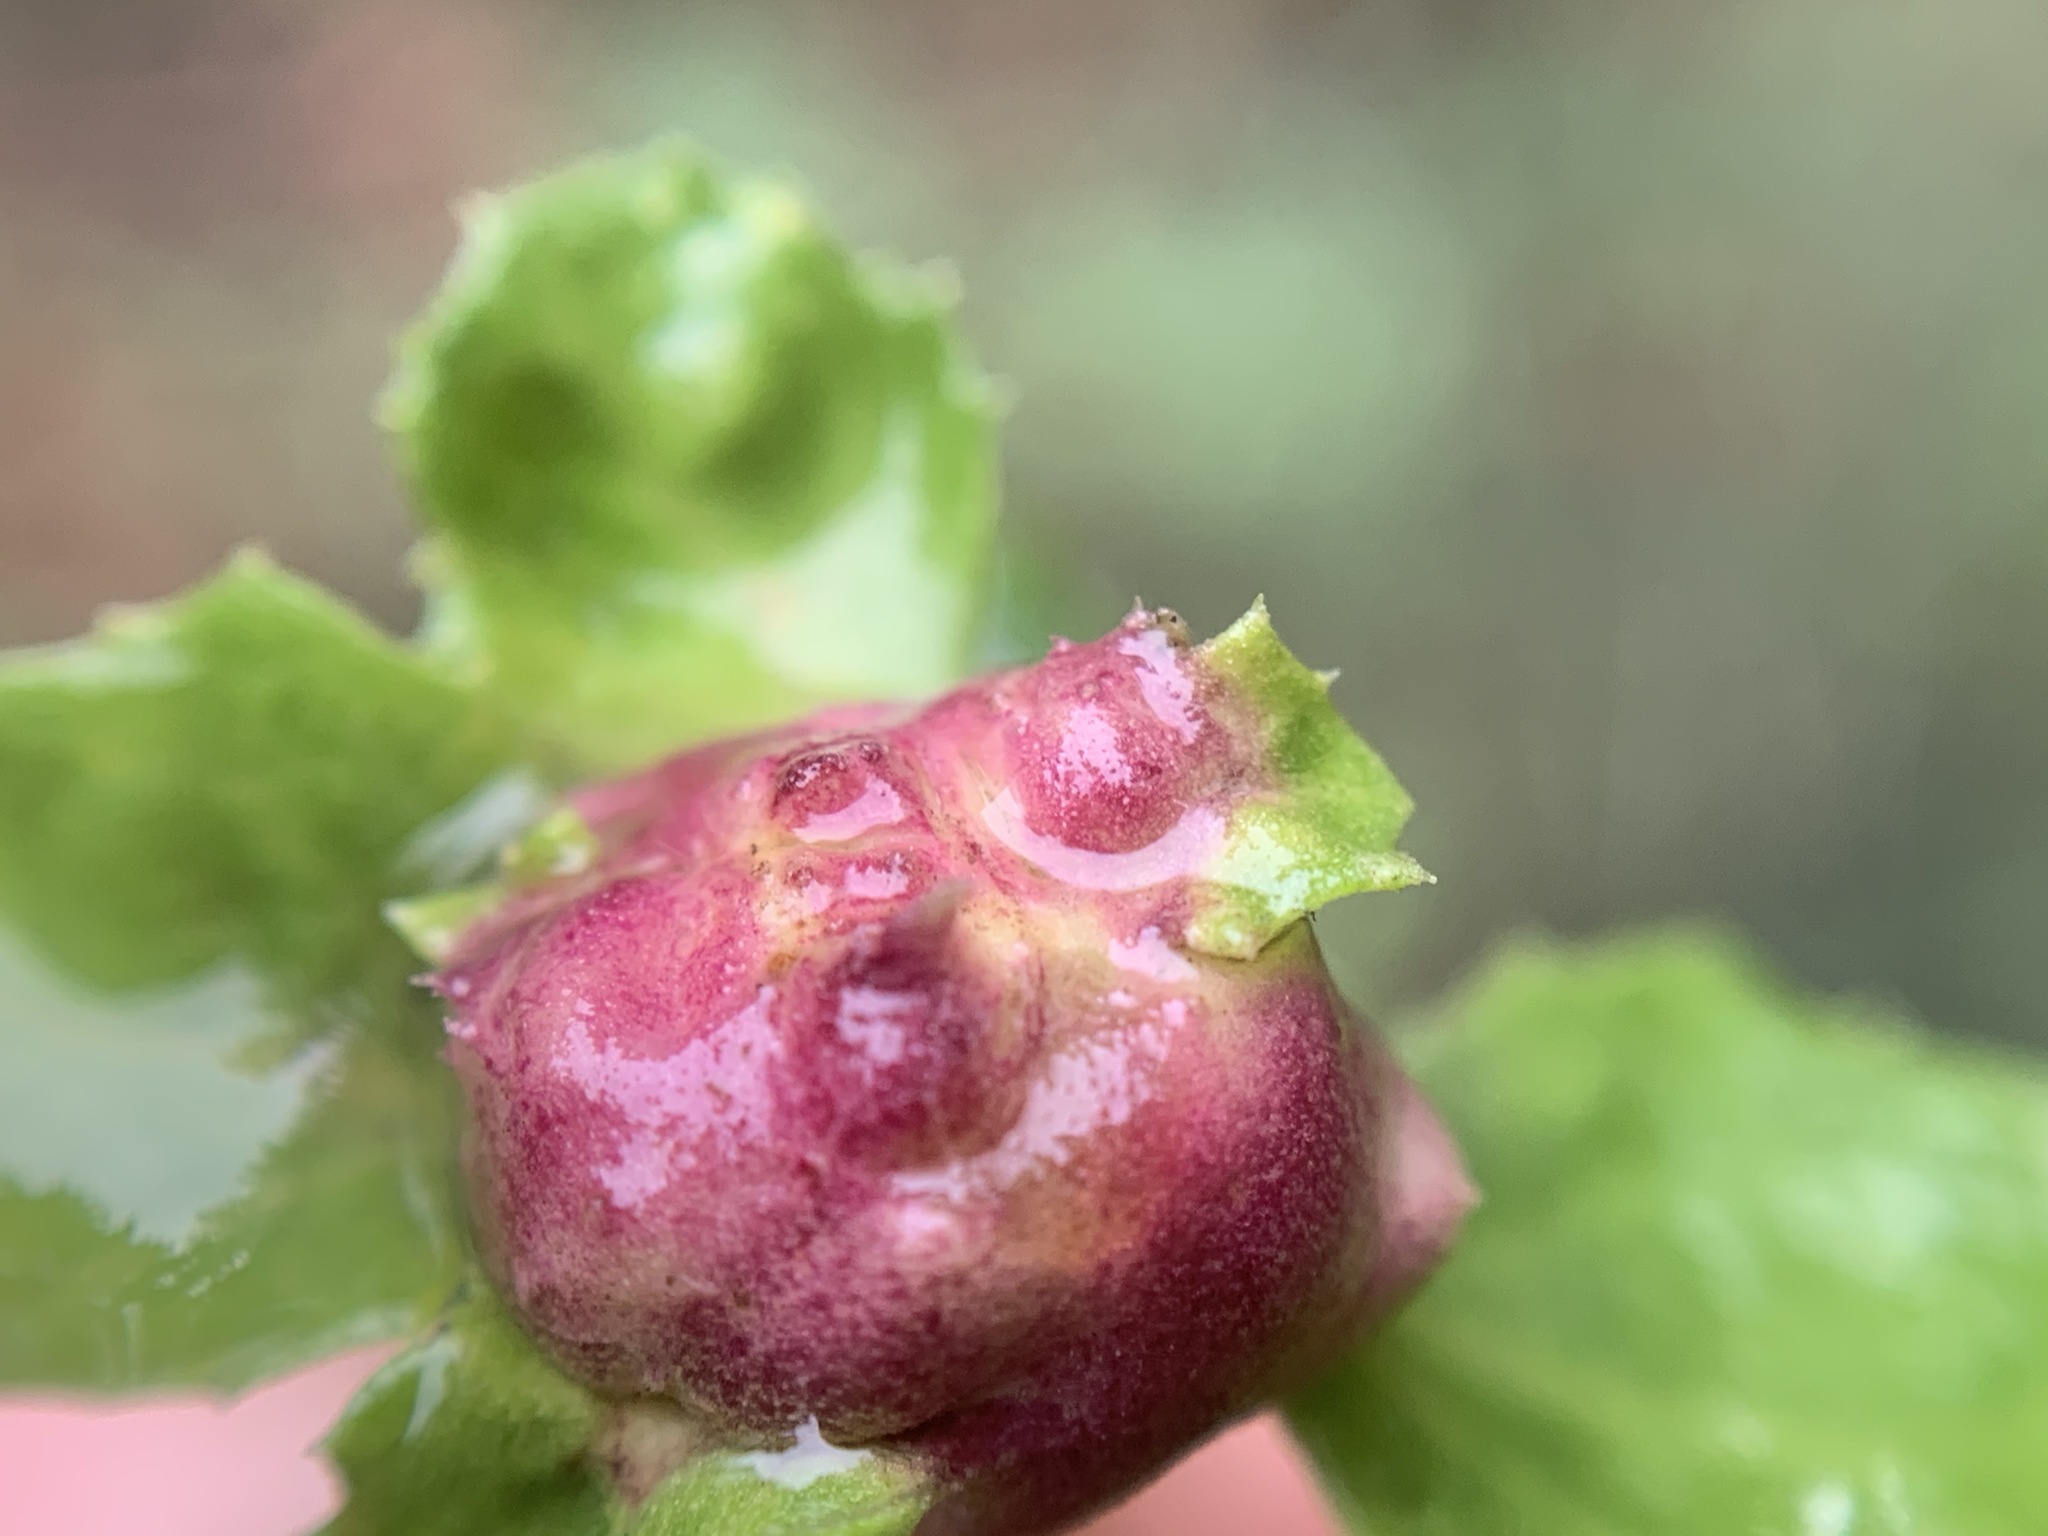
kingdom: Animalia
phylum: Arthropoda
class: Insecta
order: Diptera
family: Cecidomyiidae
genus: Rhopalomyia
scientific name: Rhopalomyia californica
